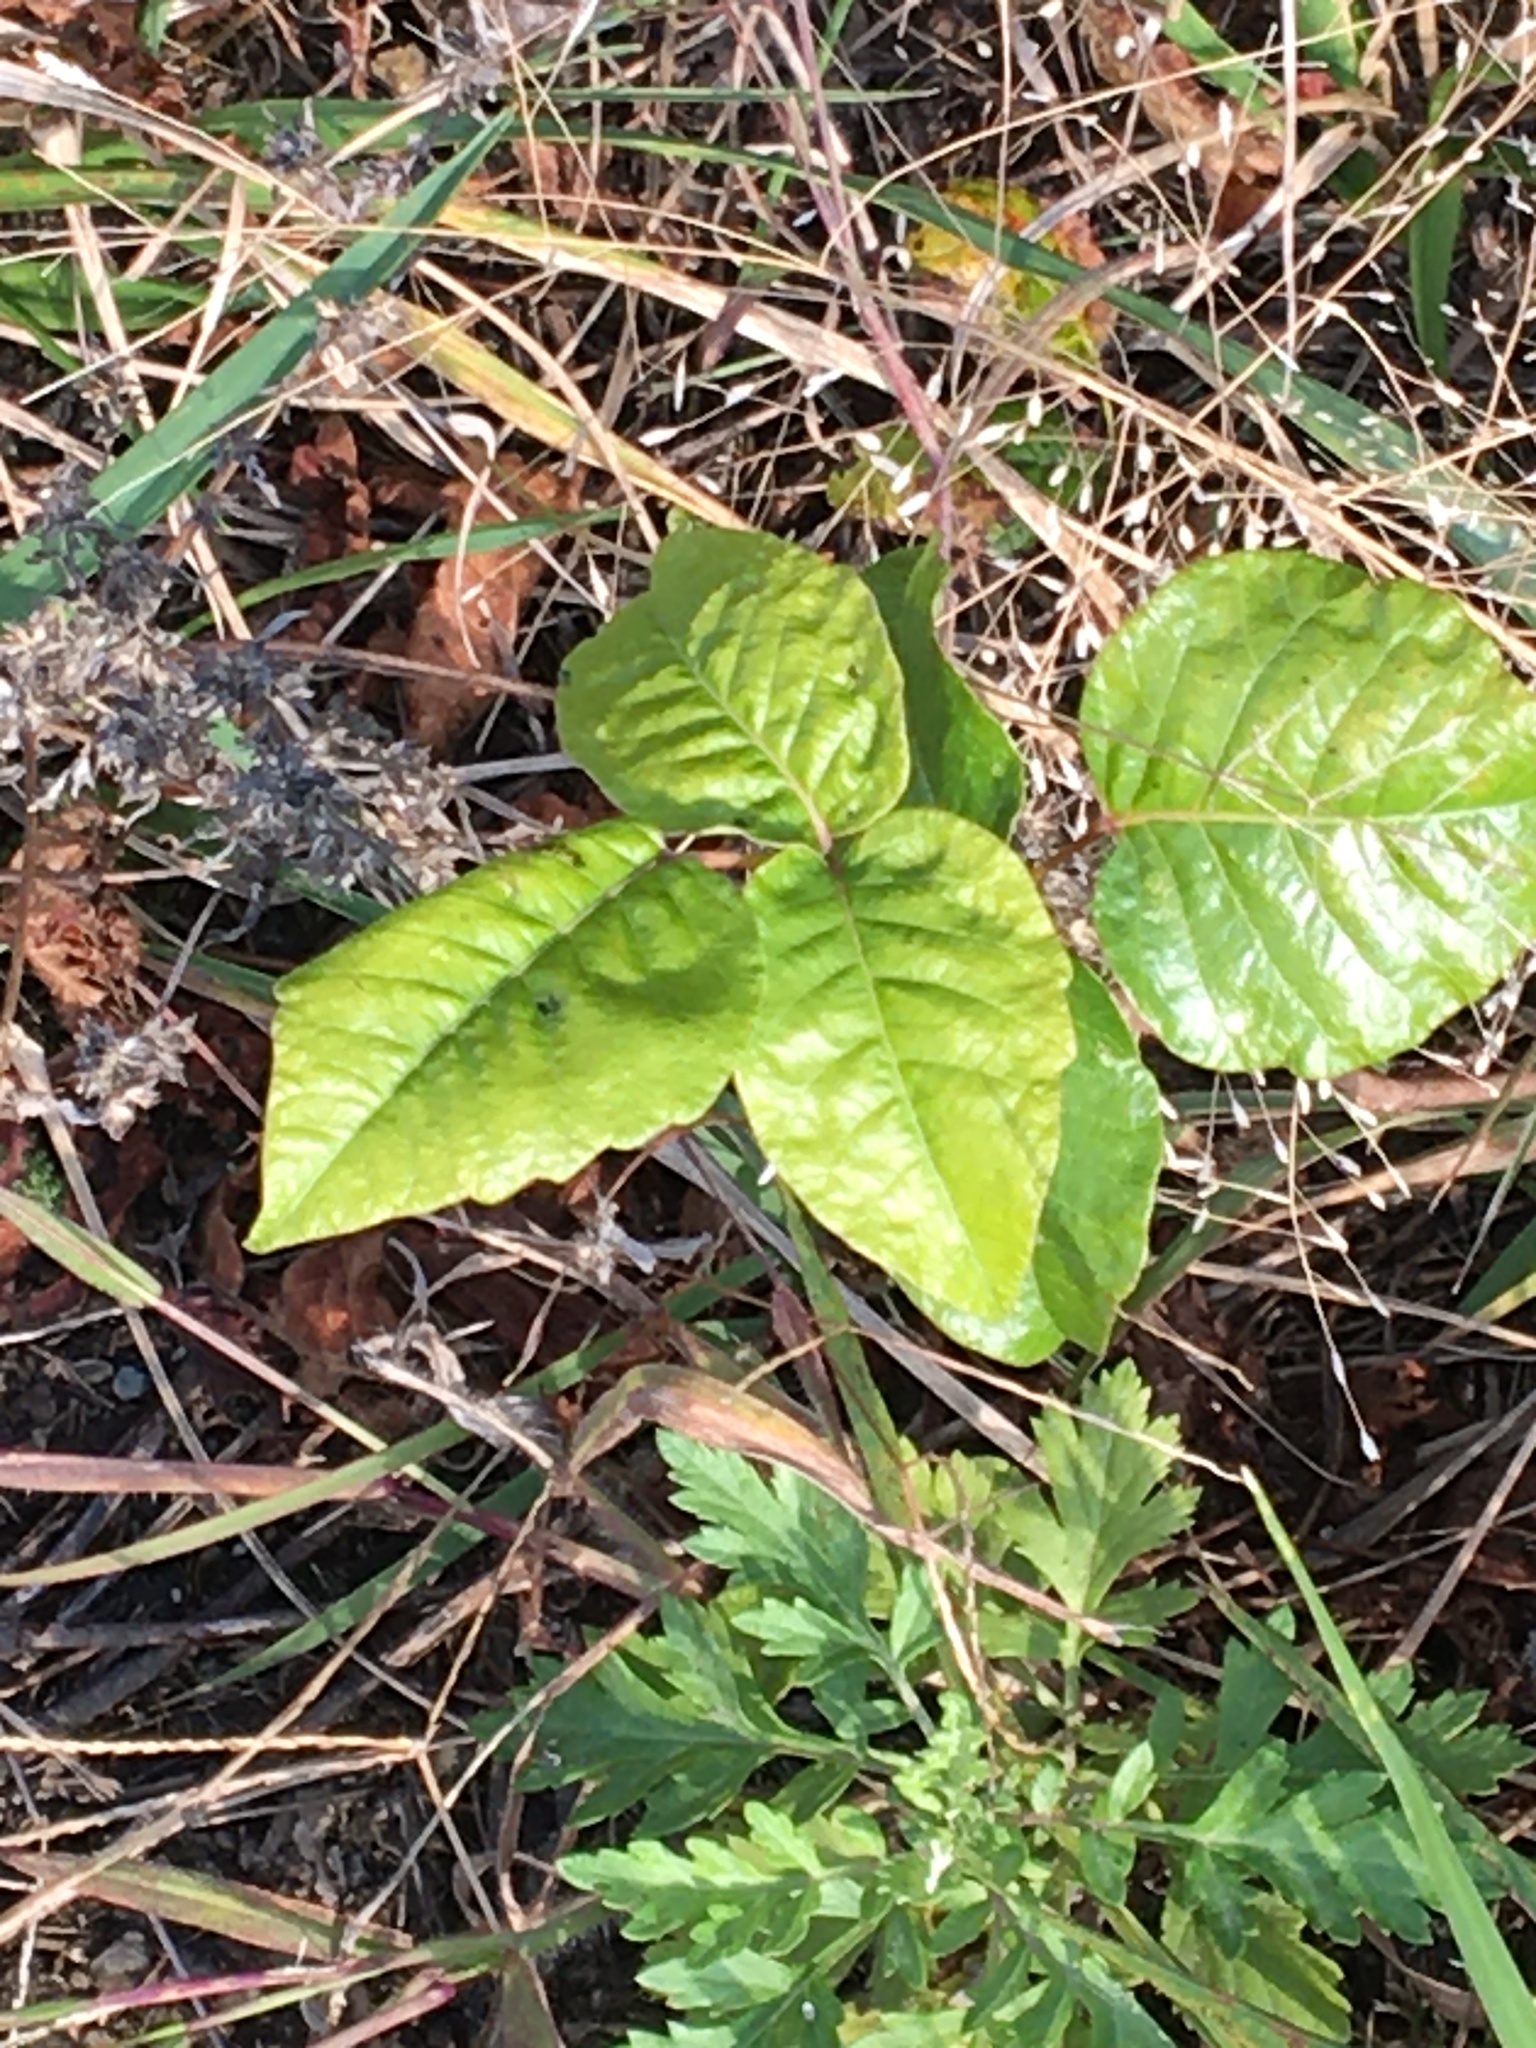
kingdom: Plantae
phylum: Tracheophyta
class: Magnoliopsida
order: Sapindales
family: Anacardiaceae
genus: Toxicodendron
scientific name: Toxicodendron radicans
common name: Poison ivy
